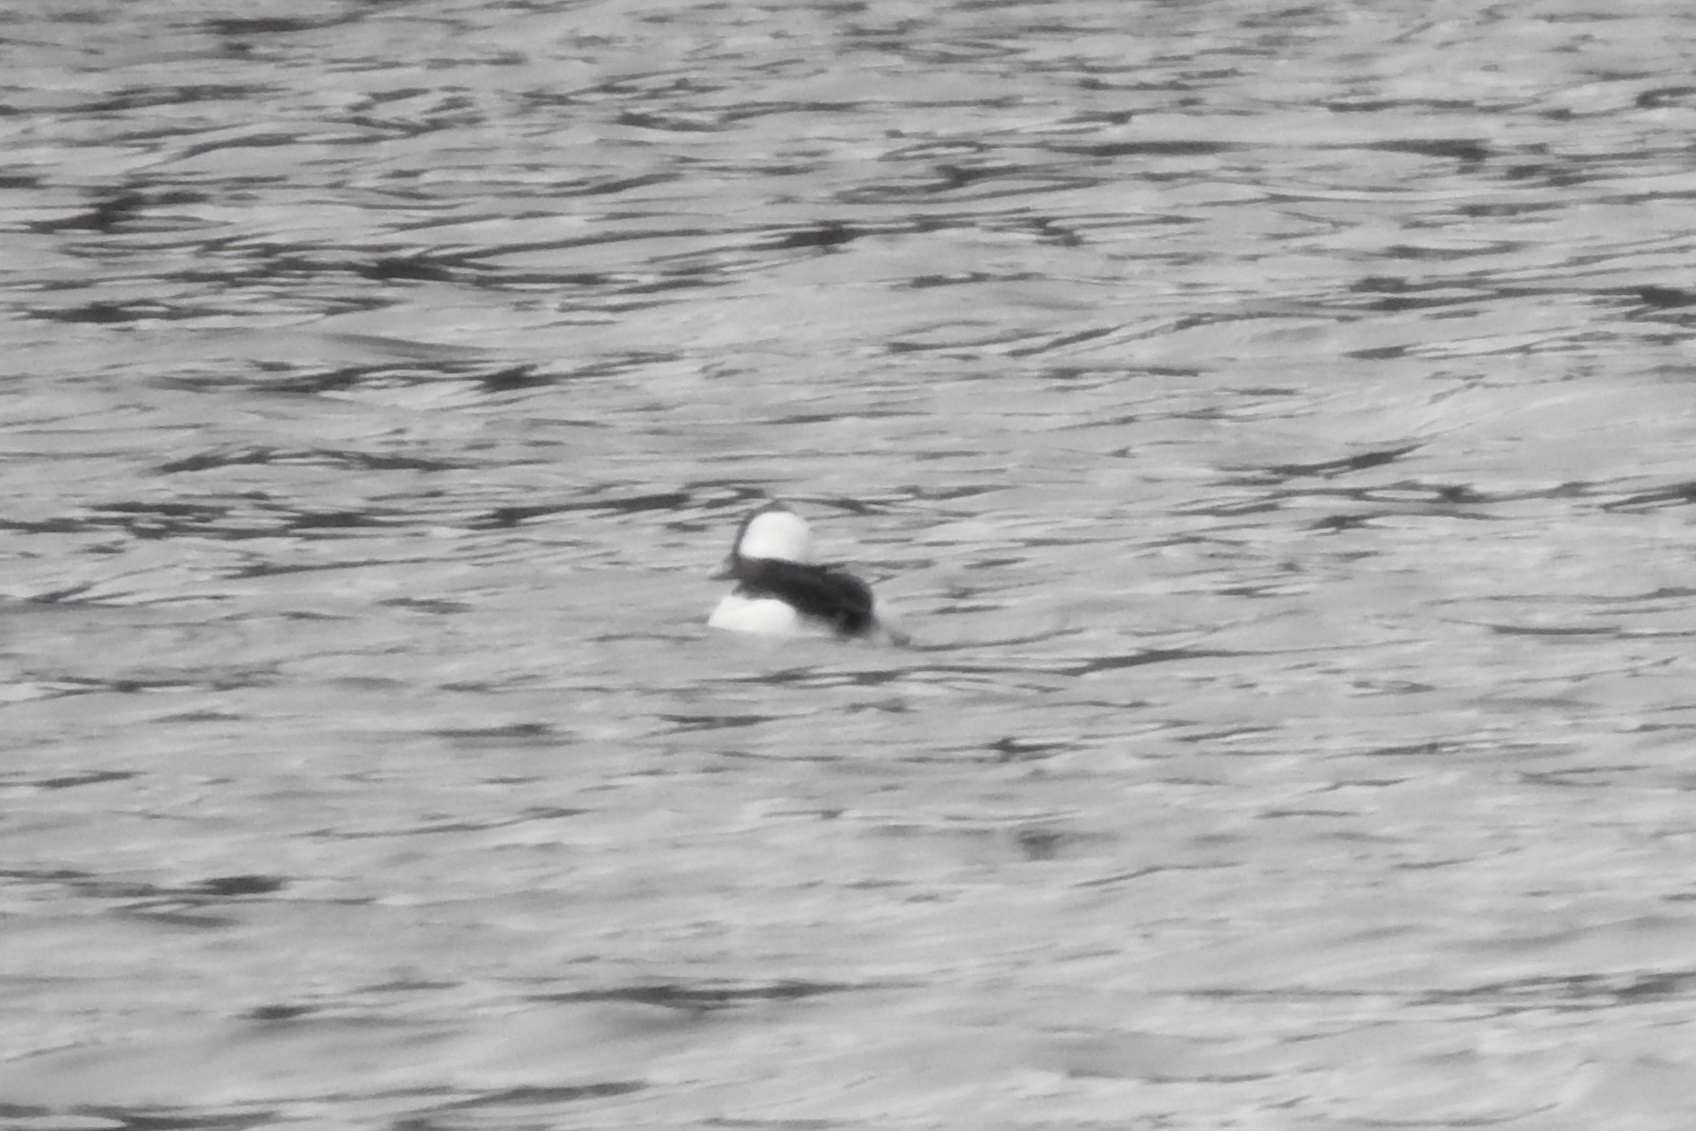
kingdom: Animalia
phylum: Chordata
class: Aves
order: Anseriformes
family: Anatidae
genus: Bucephala
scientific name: Bucephala albeola
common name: Bufflehead
